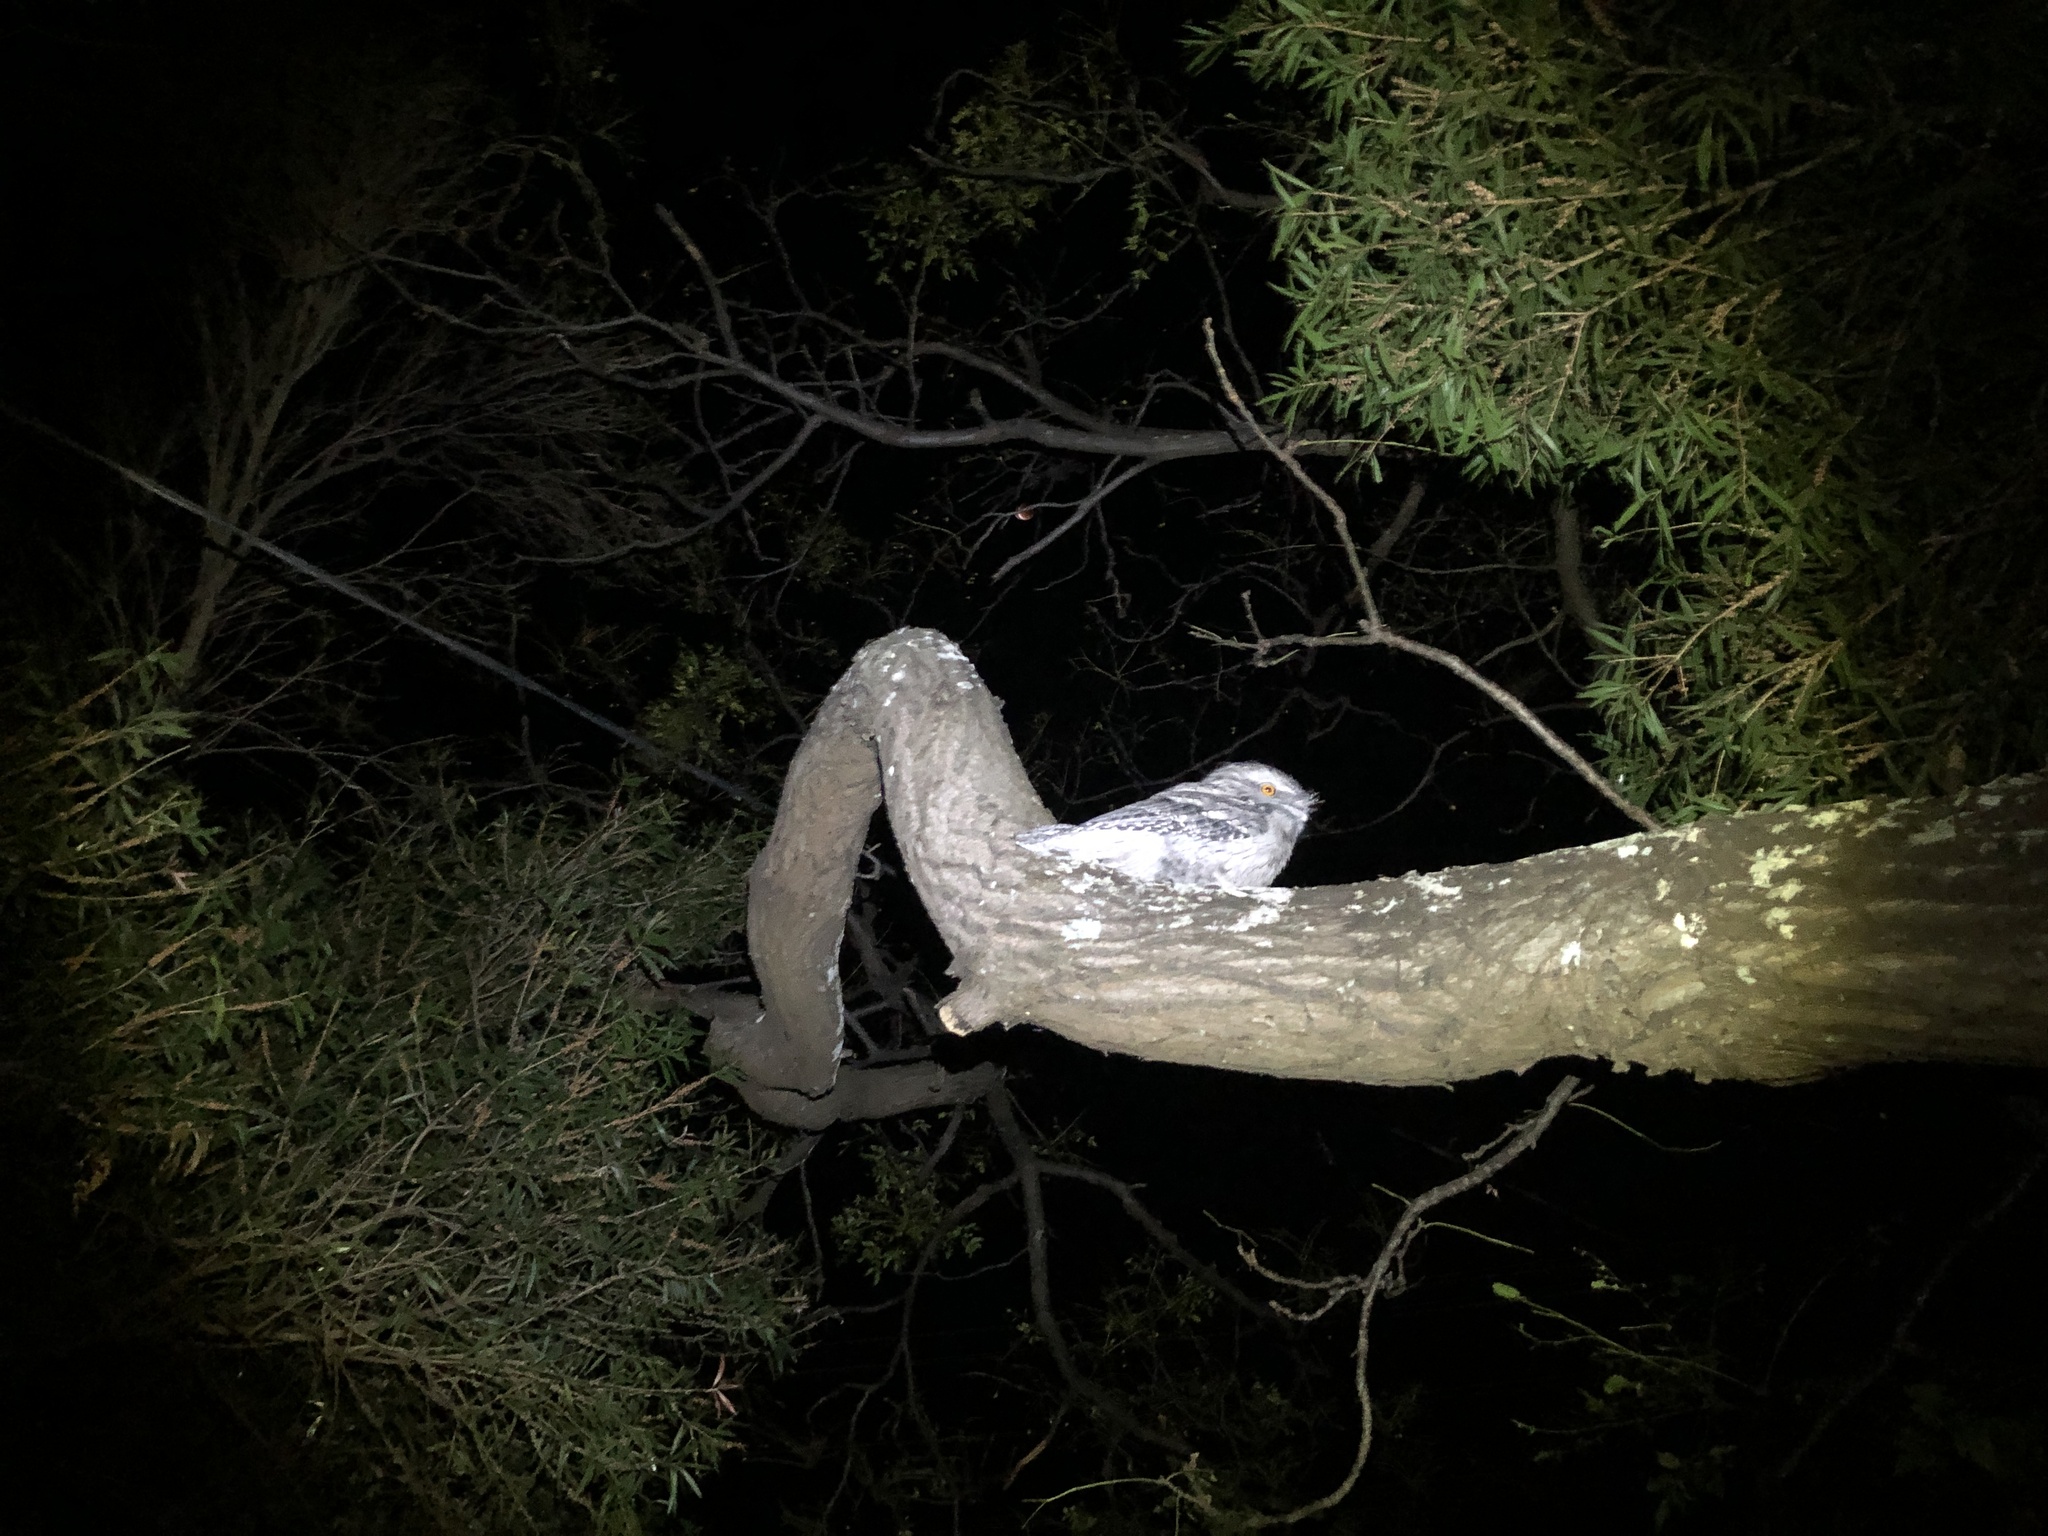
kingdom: Animalia
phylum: Chordata
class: Aves
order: Caprimulgiformes
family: Podargidae
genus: Podargus
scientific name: Podargus strigoides
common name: Tawny frogmouth
